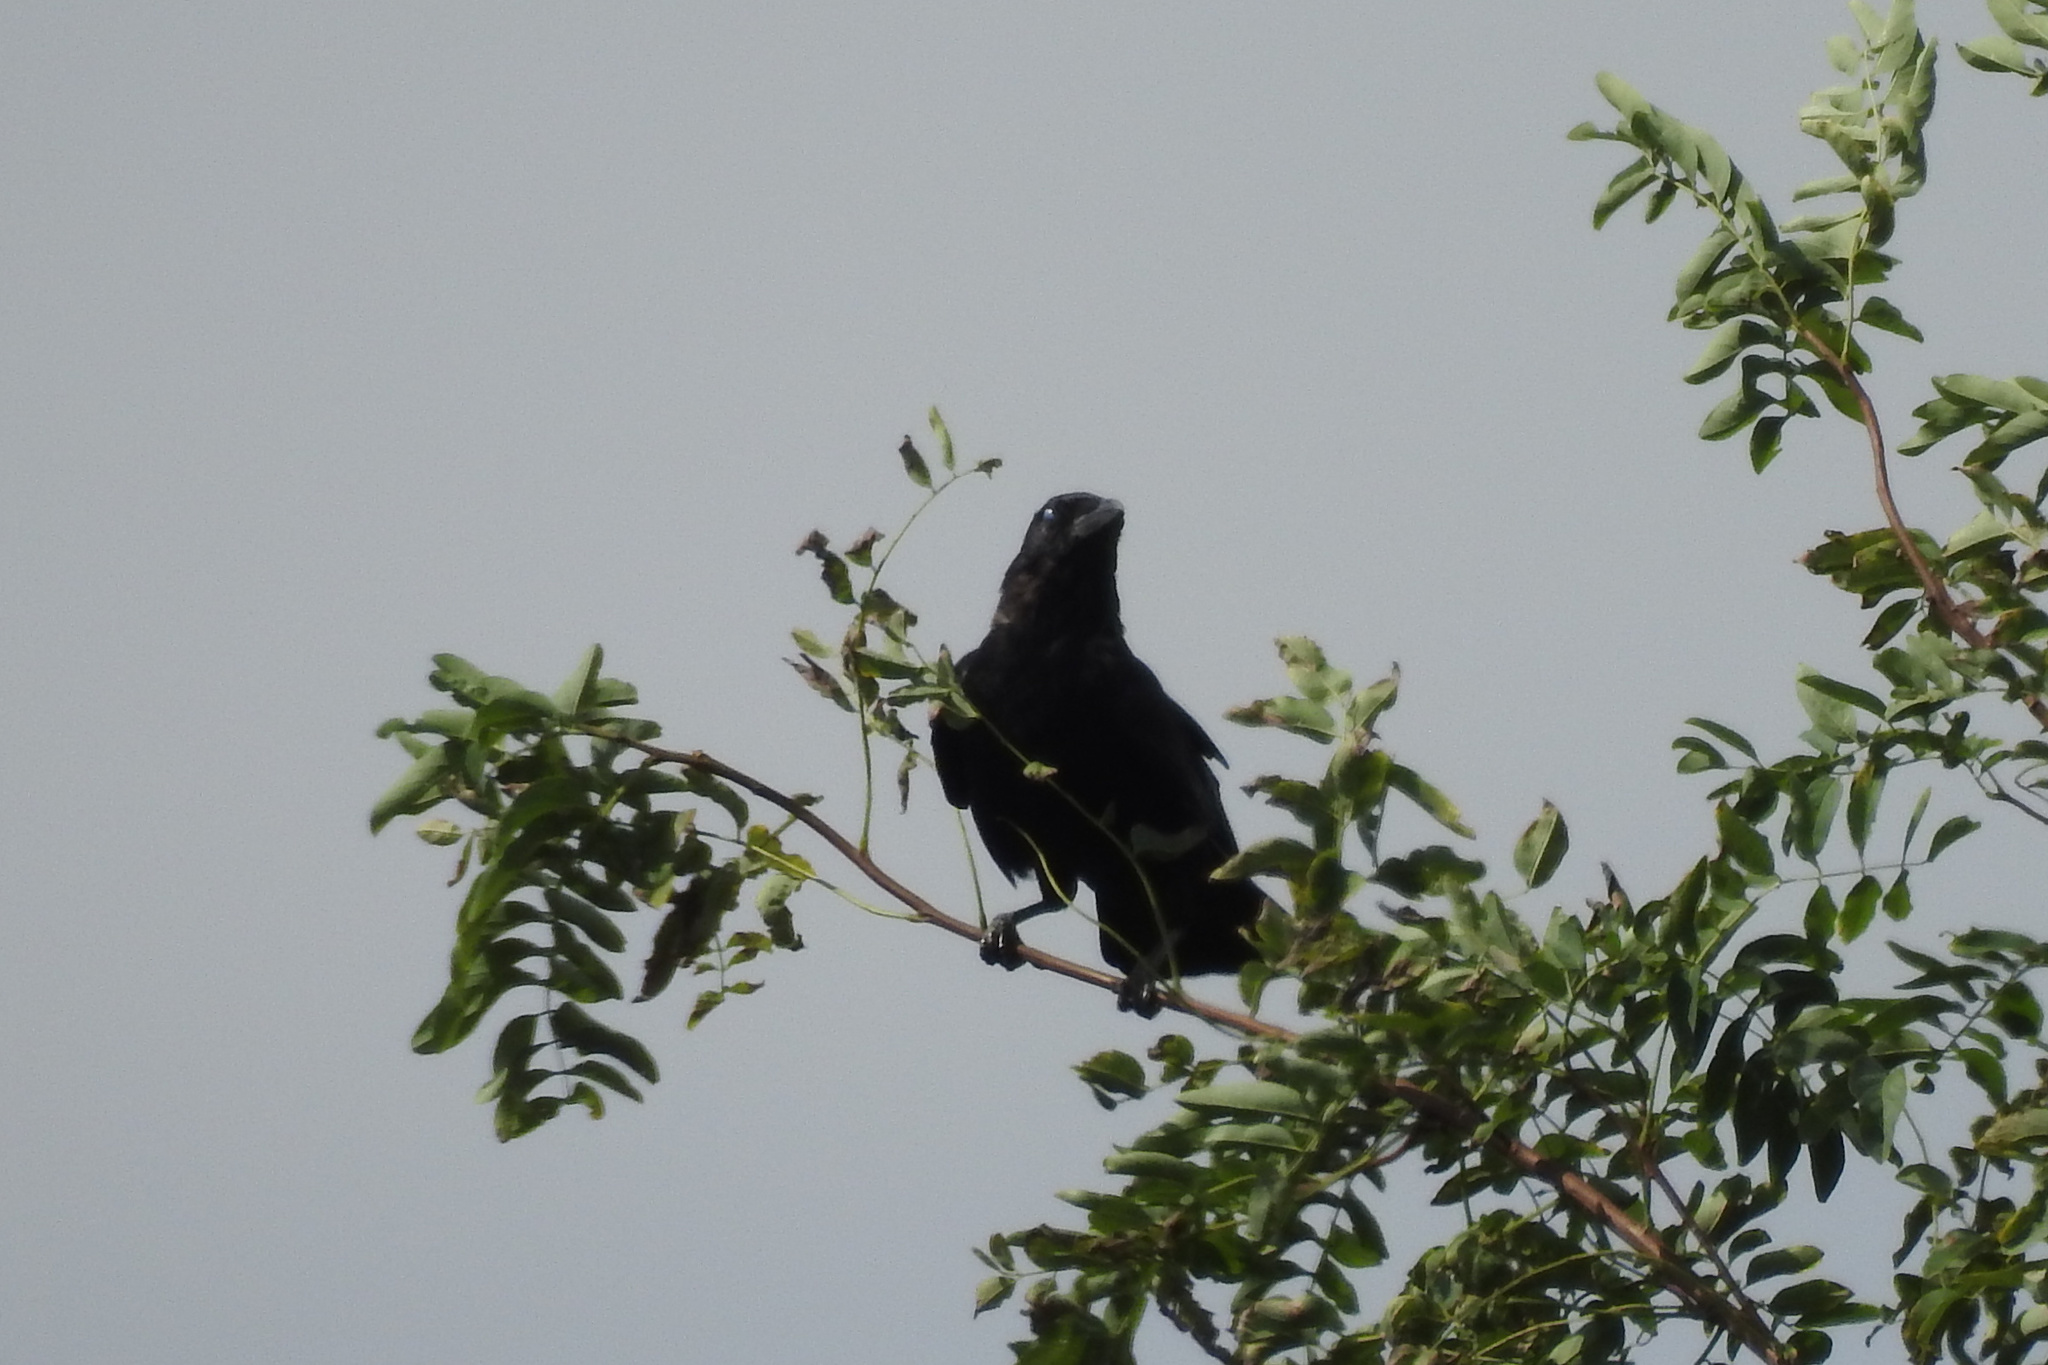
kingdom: Animalia
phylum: Chordata
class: Aves
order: Passeriformes
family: Corvidae
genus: Corvus
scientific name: Corvus brachyrhynchos
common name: American crow
